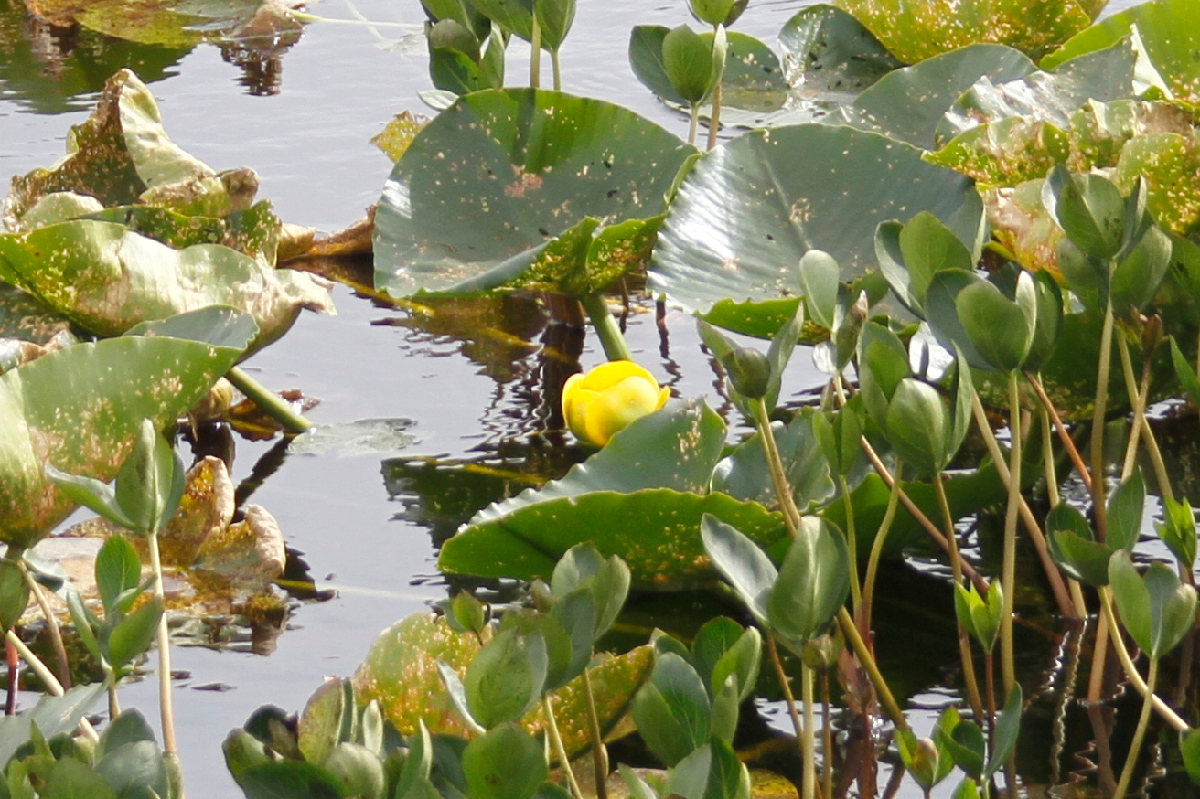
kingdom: Plantae
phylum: Tracheophyta
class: Magnoliopsida
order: Nymphaeales
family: Nymphaeaceae
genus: Nuphar
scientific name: Nuphar polysepala
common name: Rocky mountain cow-lily
